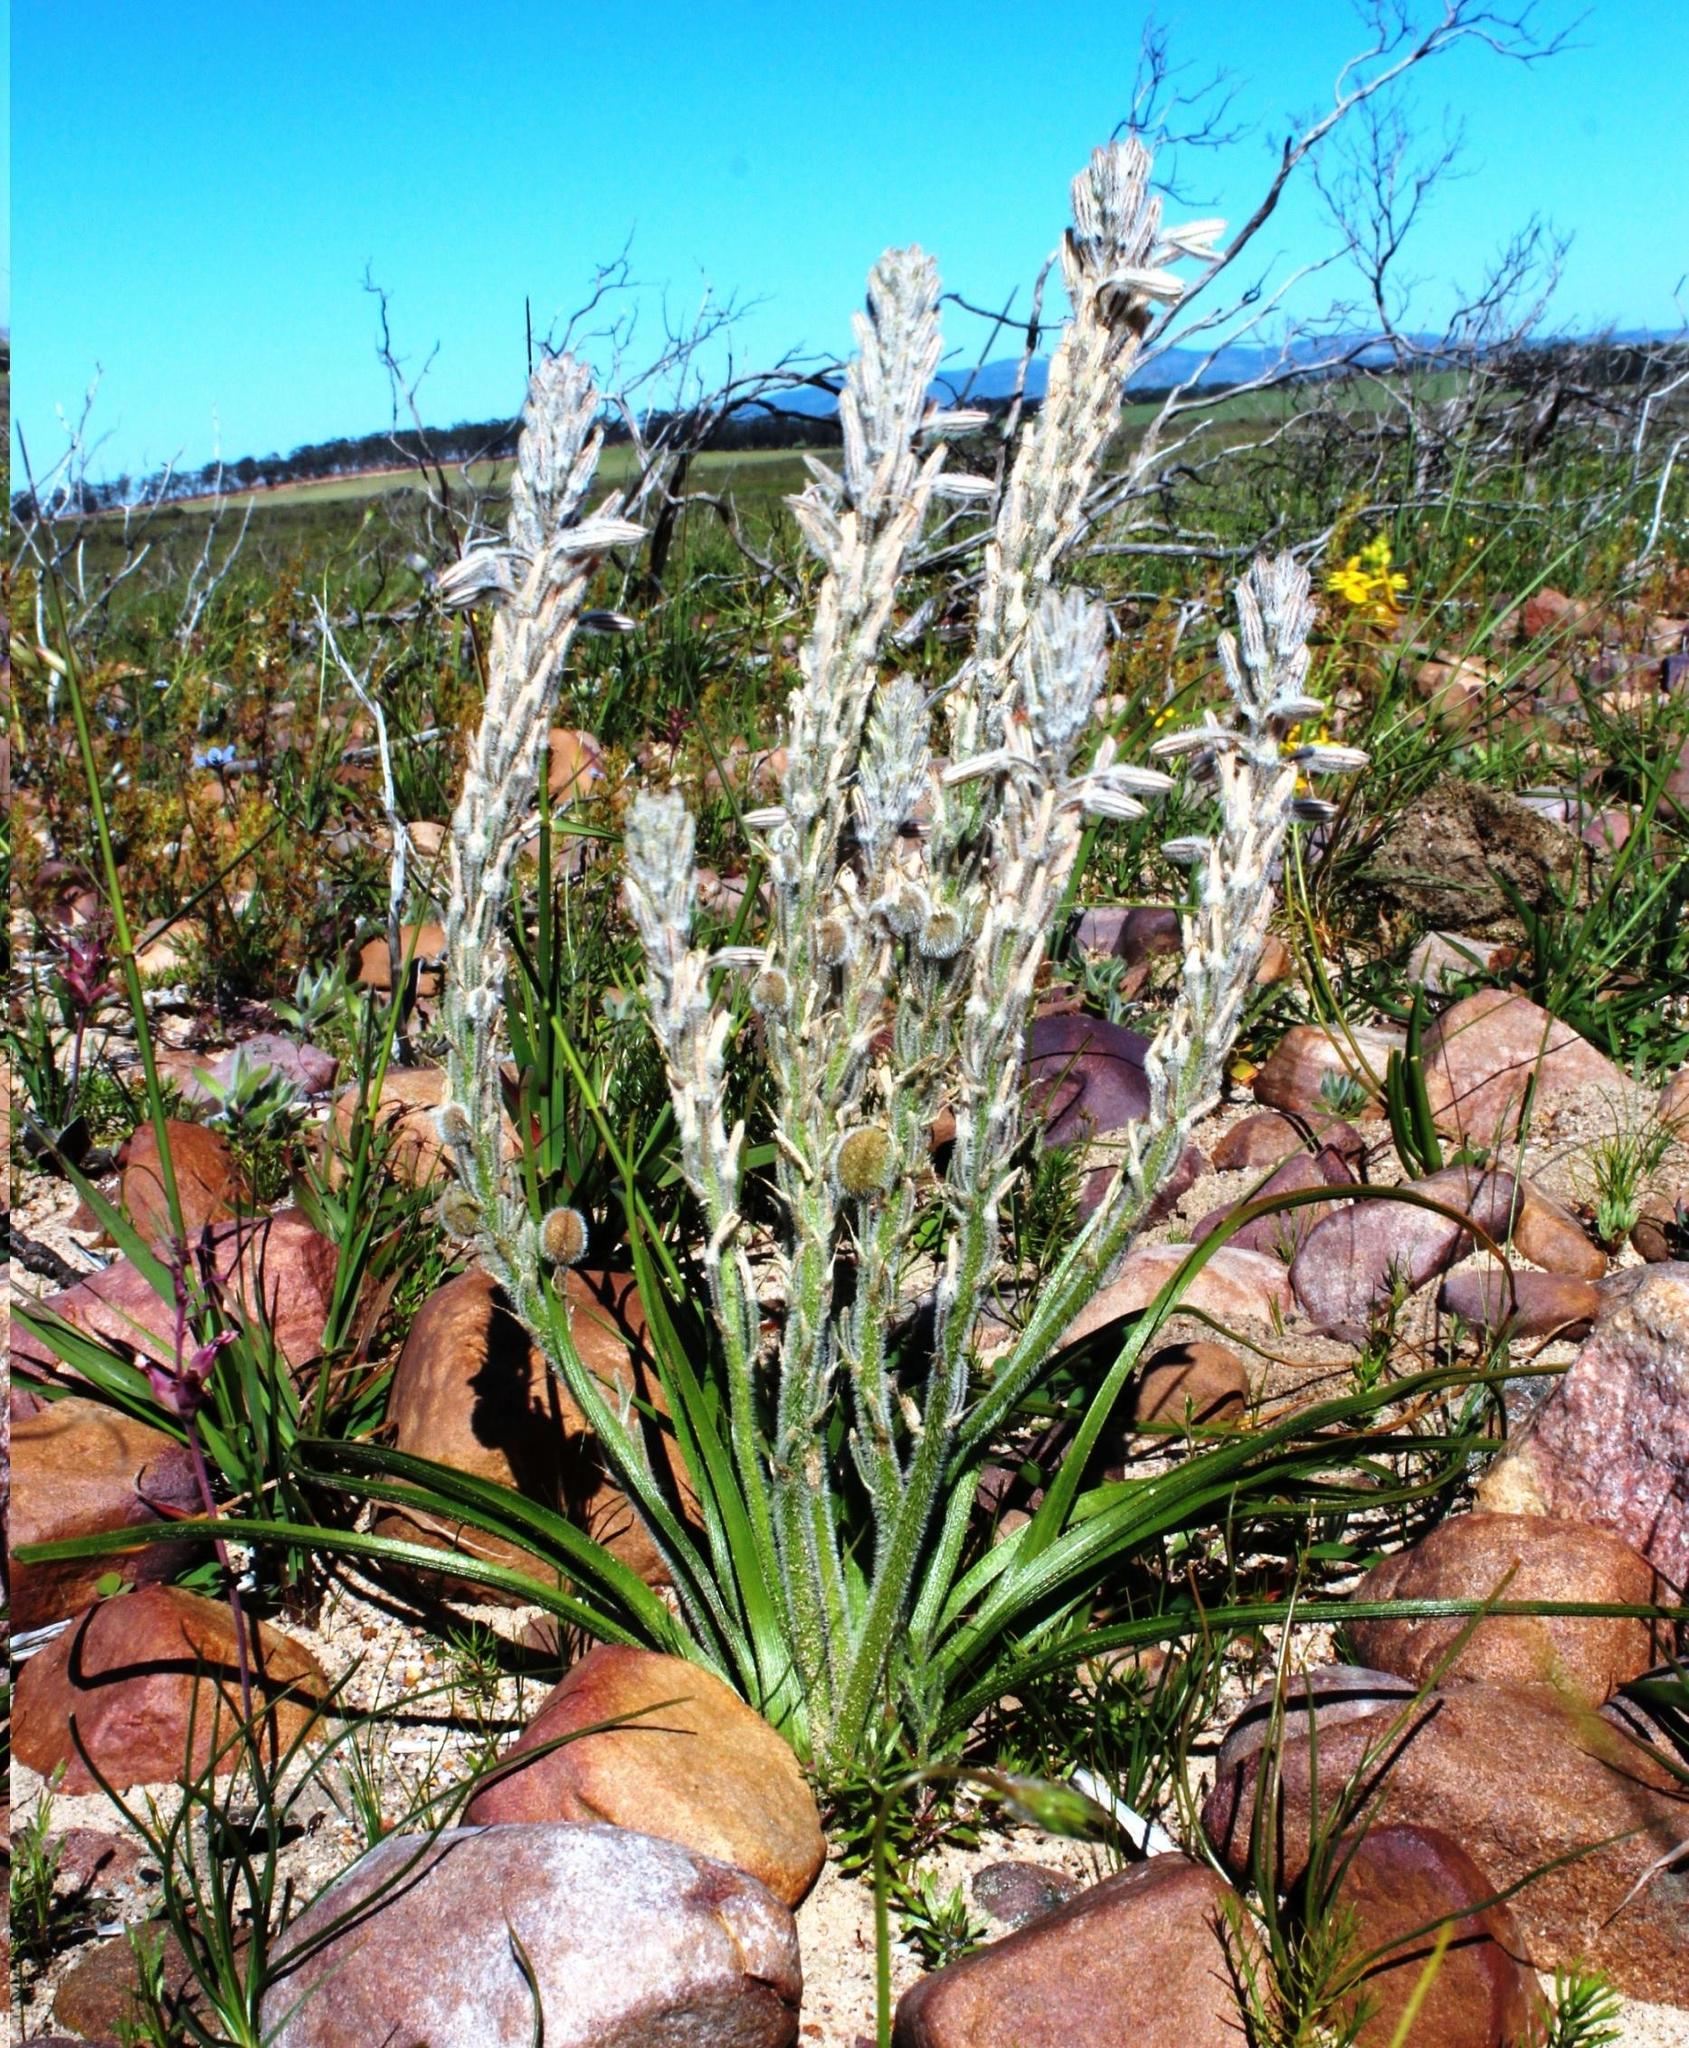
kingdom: Plantae
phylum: Tracheophyta
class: Liliopsida
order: Asparagales
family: Asphodelaceae
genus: Trachyandra
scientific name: Trachyandra hirsutiflora
